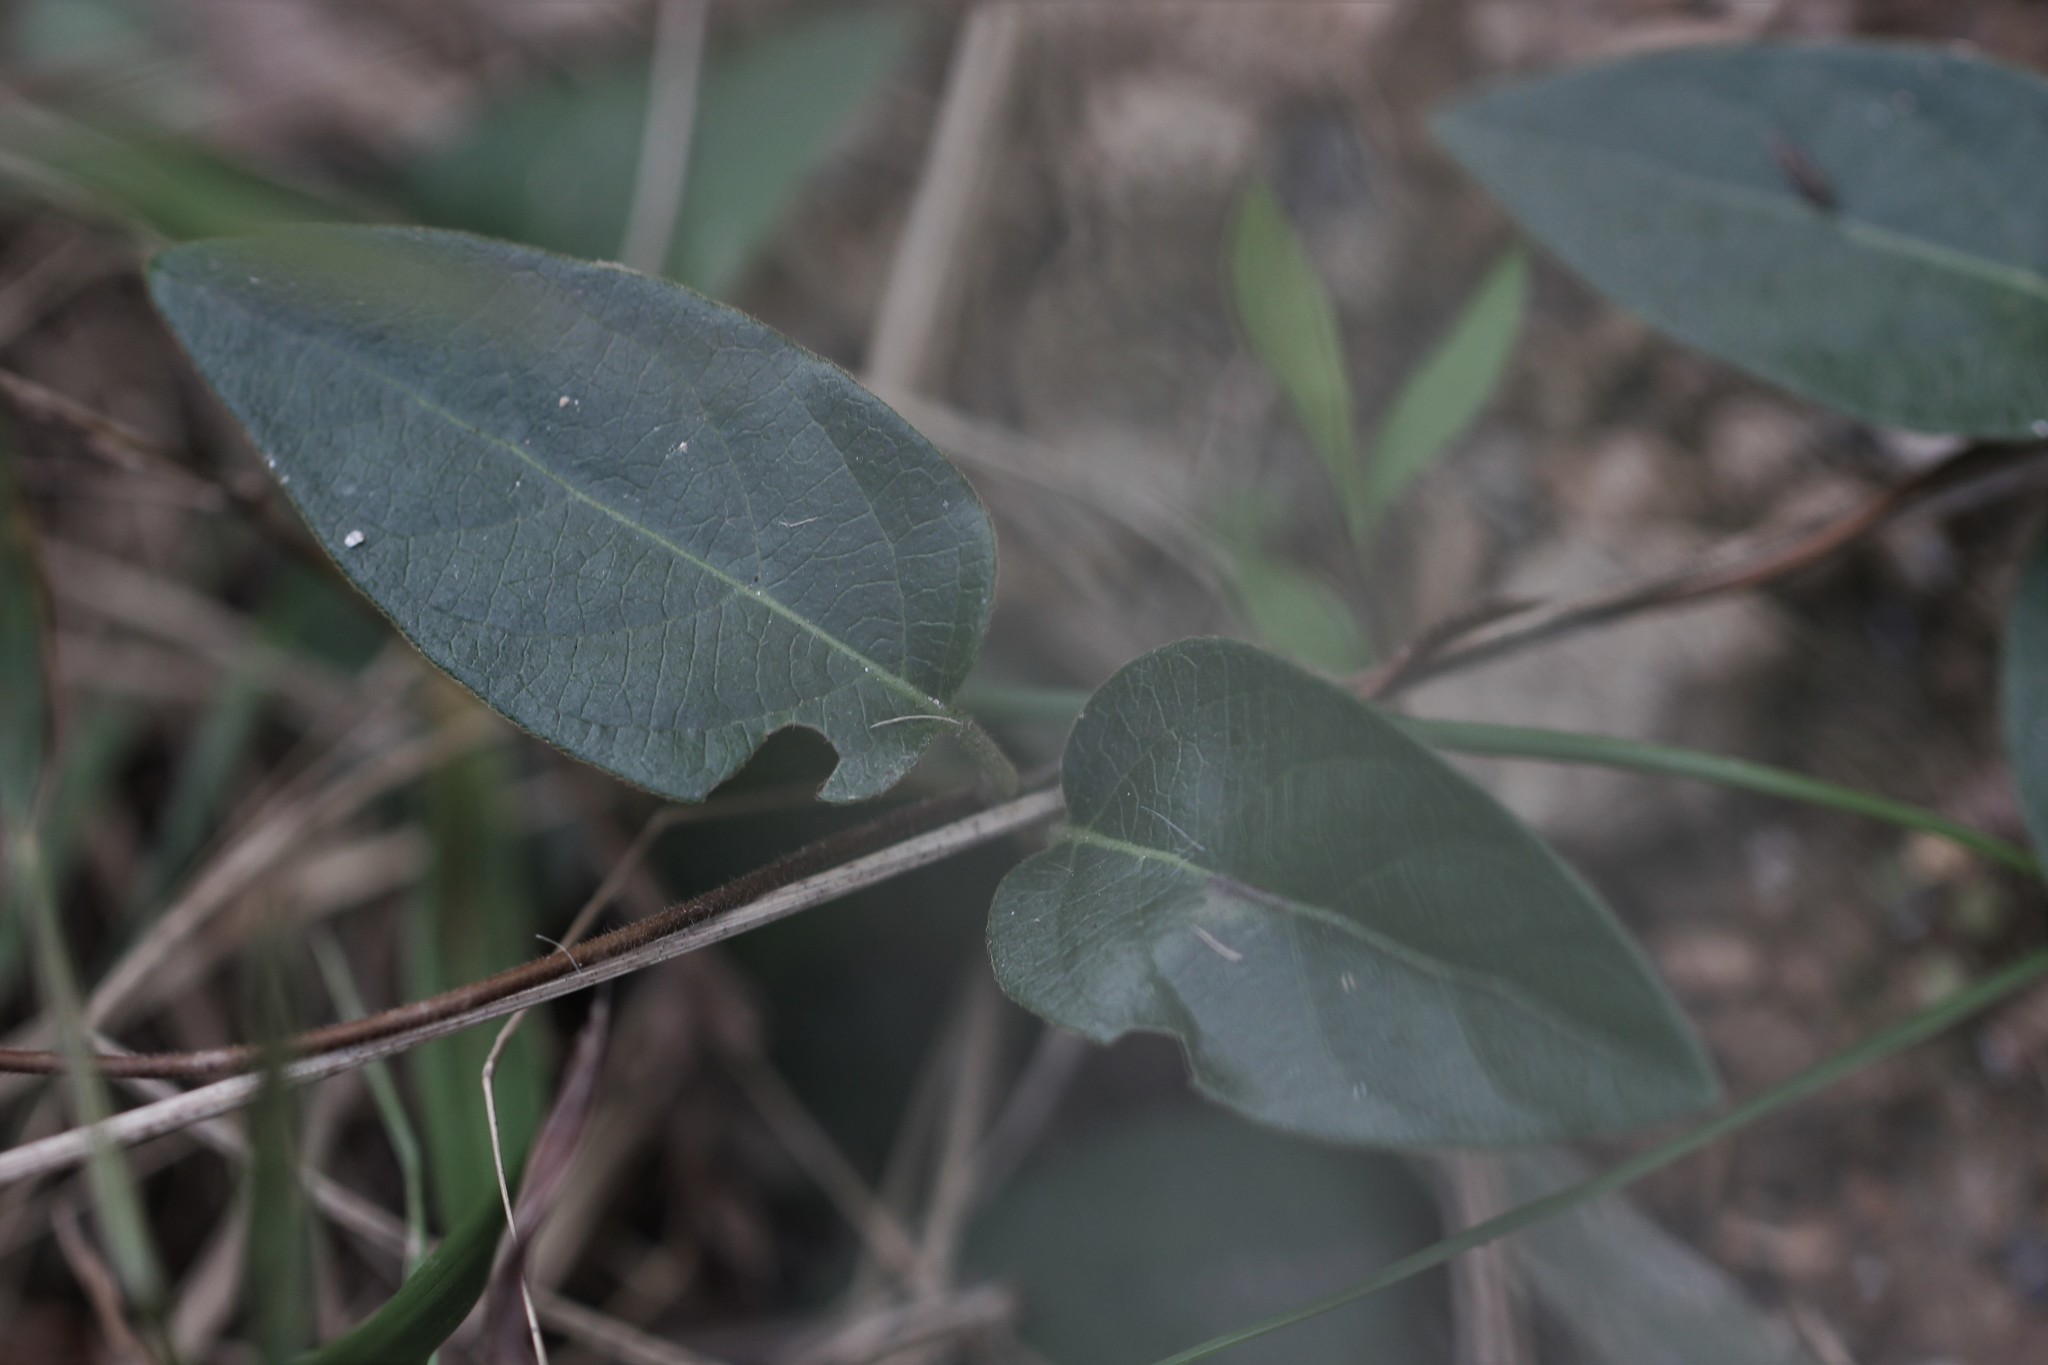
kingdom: Plantae
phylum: Tracheophyta
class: Magnoliopsida
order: Dipsacales
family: Caprifoliaceae
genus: Lonicera
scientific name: Lonicera japonica
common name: Japanese honeysuckle
